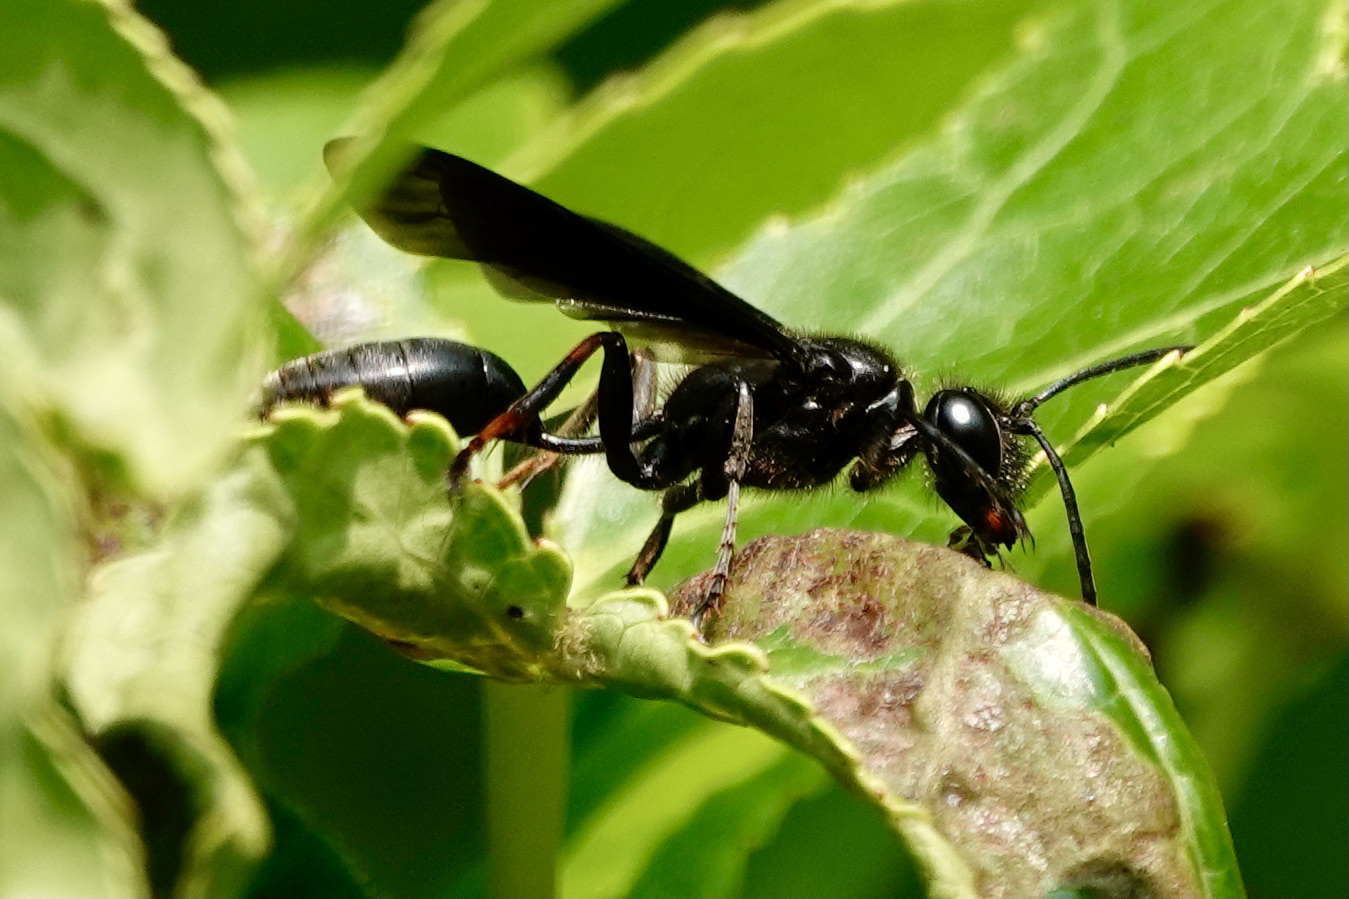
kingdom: Animalia
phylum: Arthropoda
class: Insecta
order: Hymenoptera
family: Sphecidae
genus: Isodontia
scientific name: Isodontia auripes
